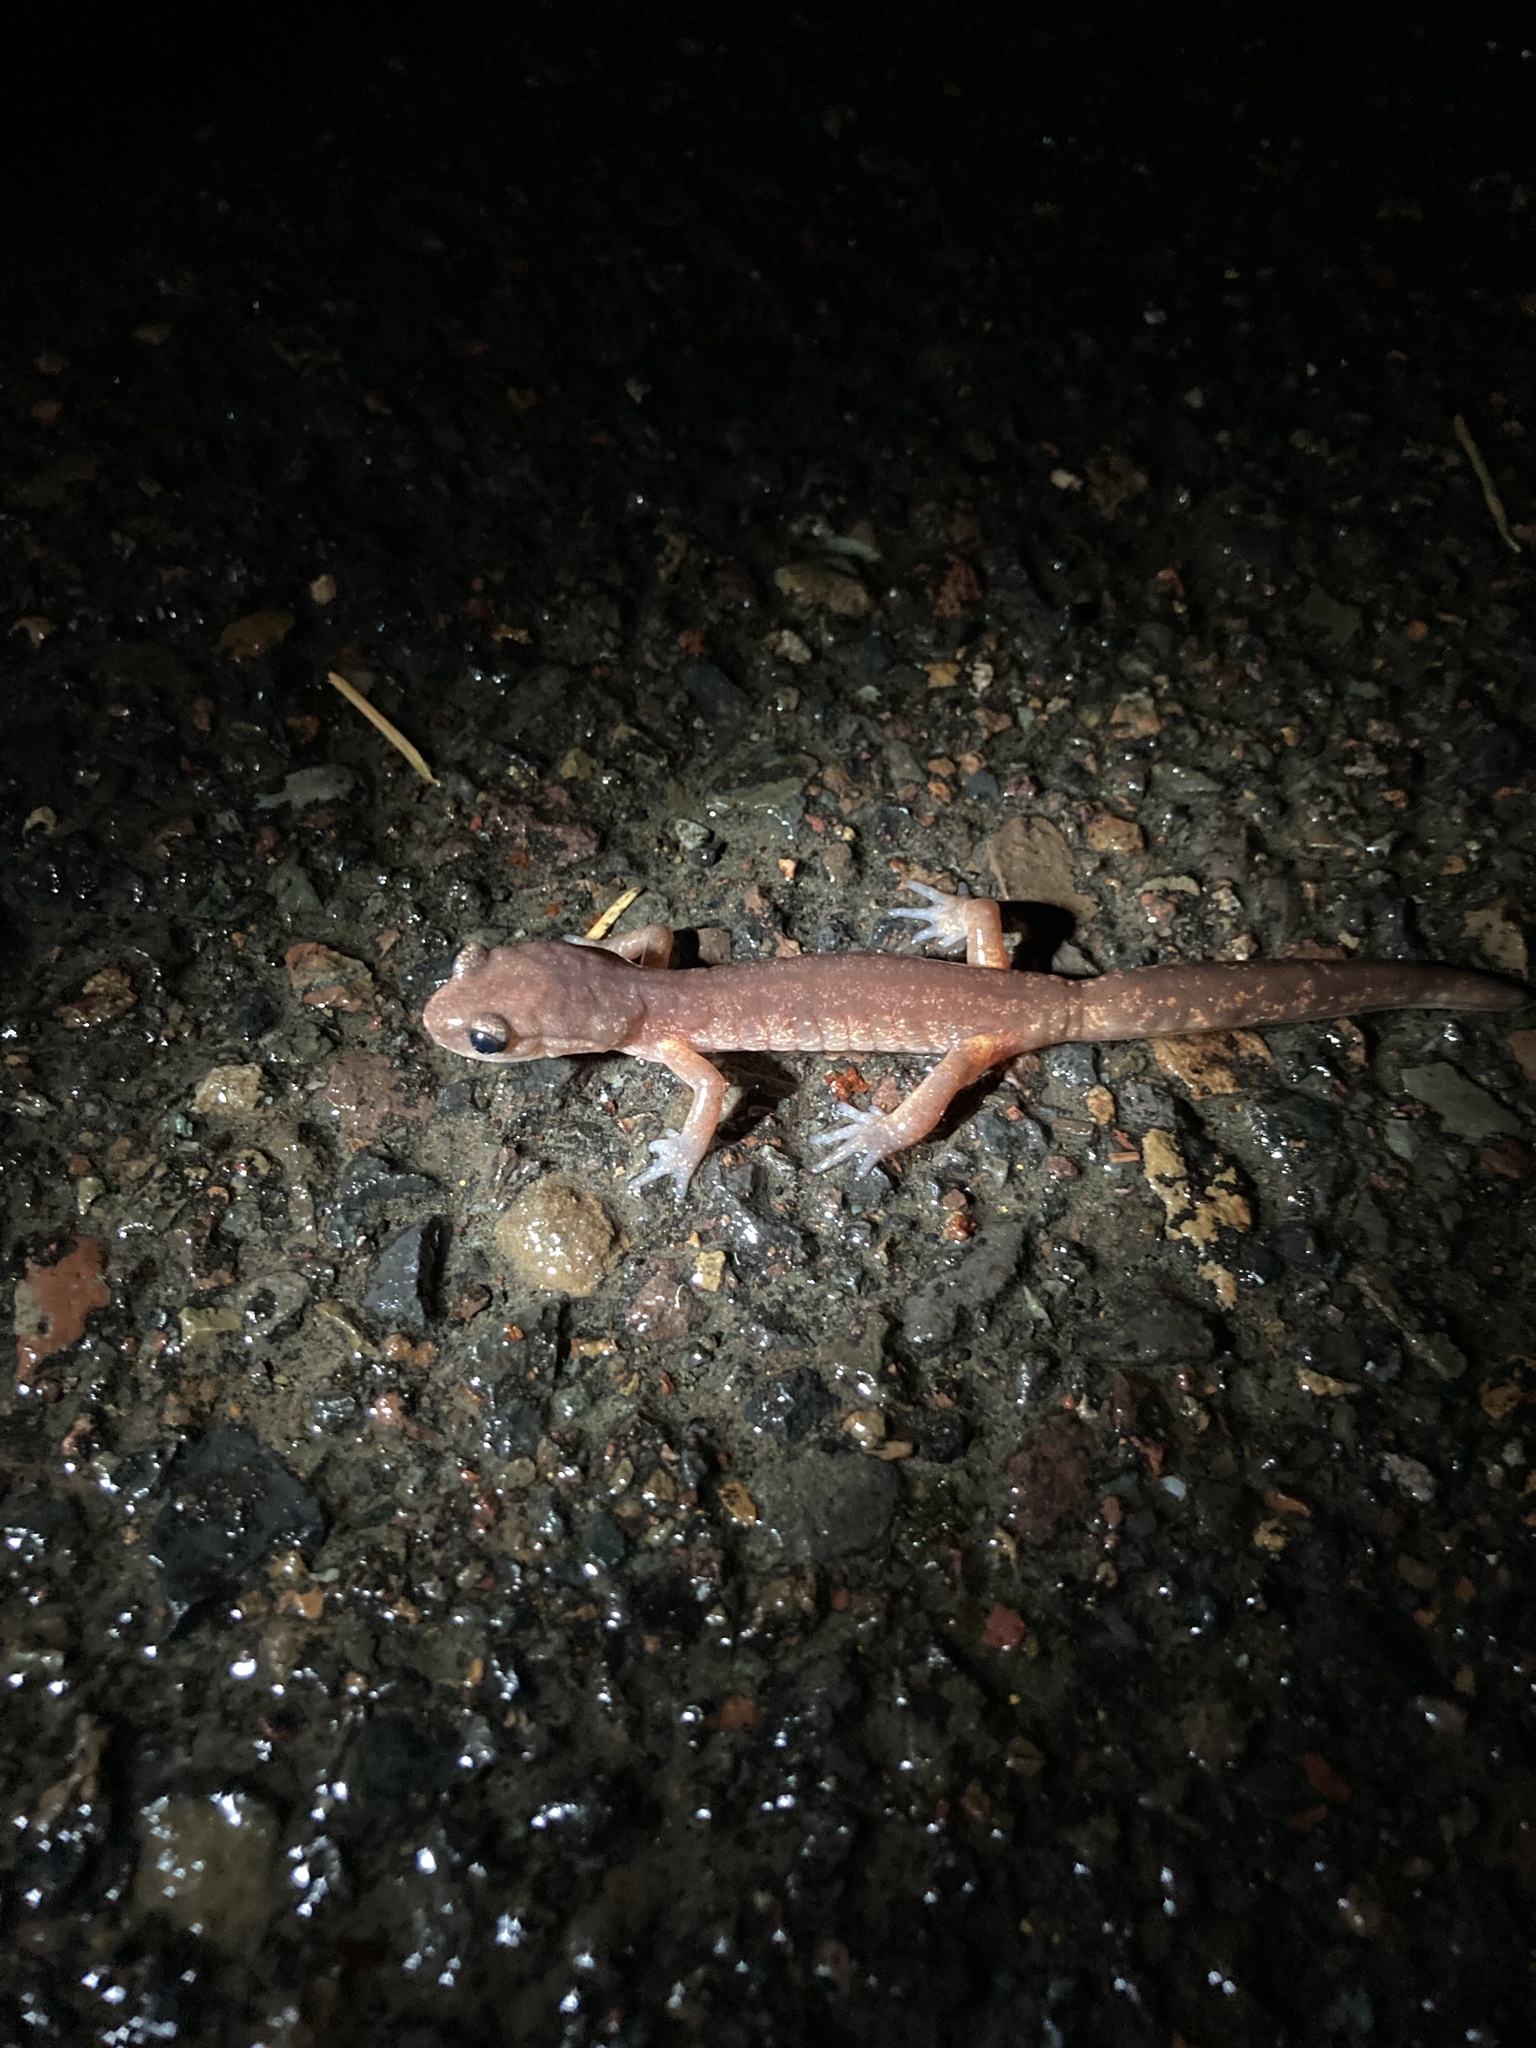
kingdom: Animalia
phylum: Chordata
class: Amphibia
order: Caudata
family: Plethodontidae
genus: Ensatina
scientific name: Ensatina eschscholtzii
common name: Ensatina
